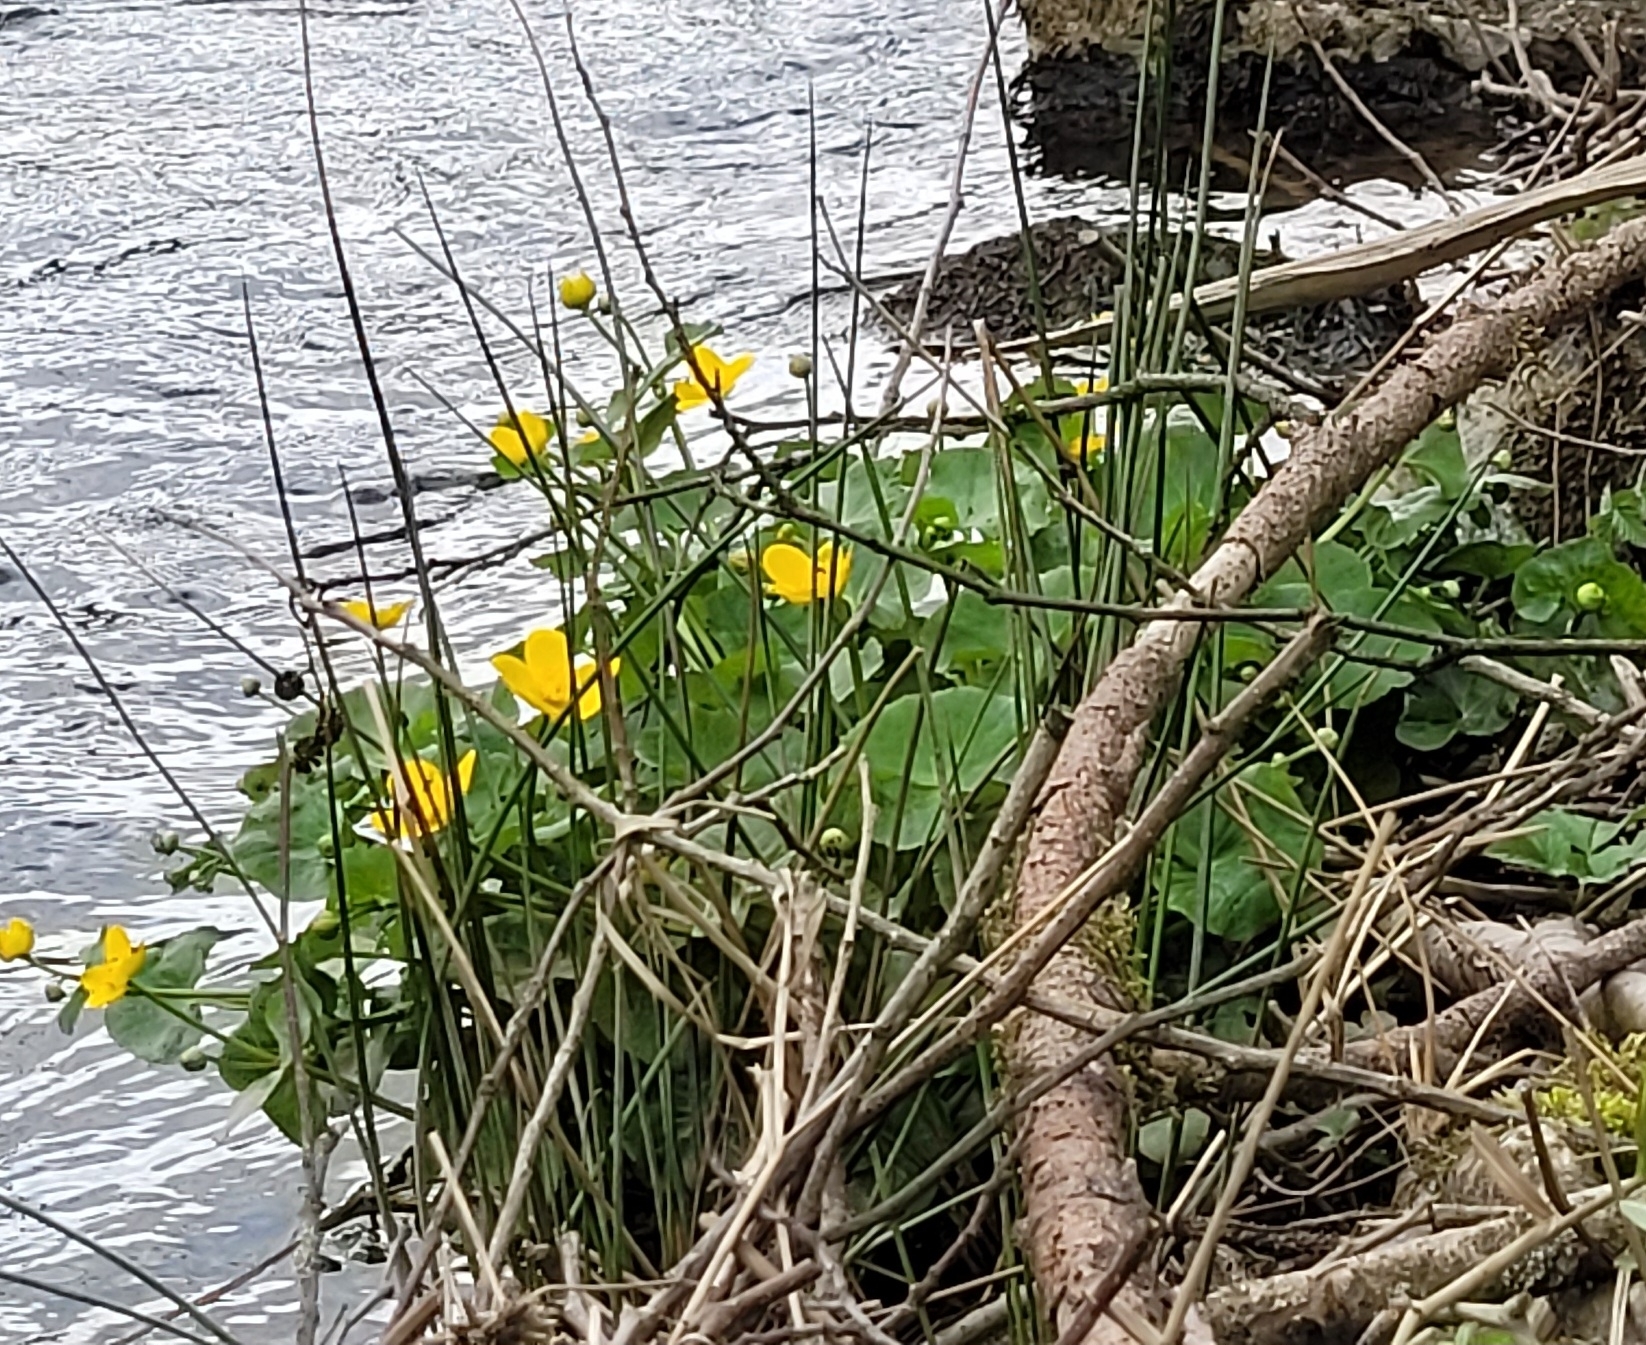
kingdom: Plantae
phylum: Tracheophyta
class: Magnoliopsida
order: Ranunculales
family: Ranunculaceae
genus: Caltha
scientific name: Caltha palustris
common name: Marsh marigold
